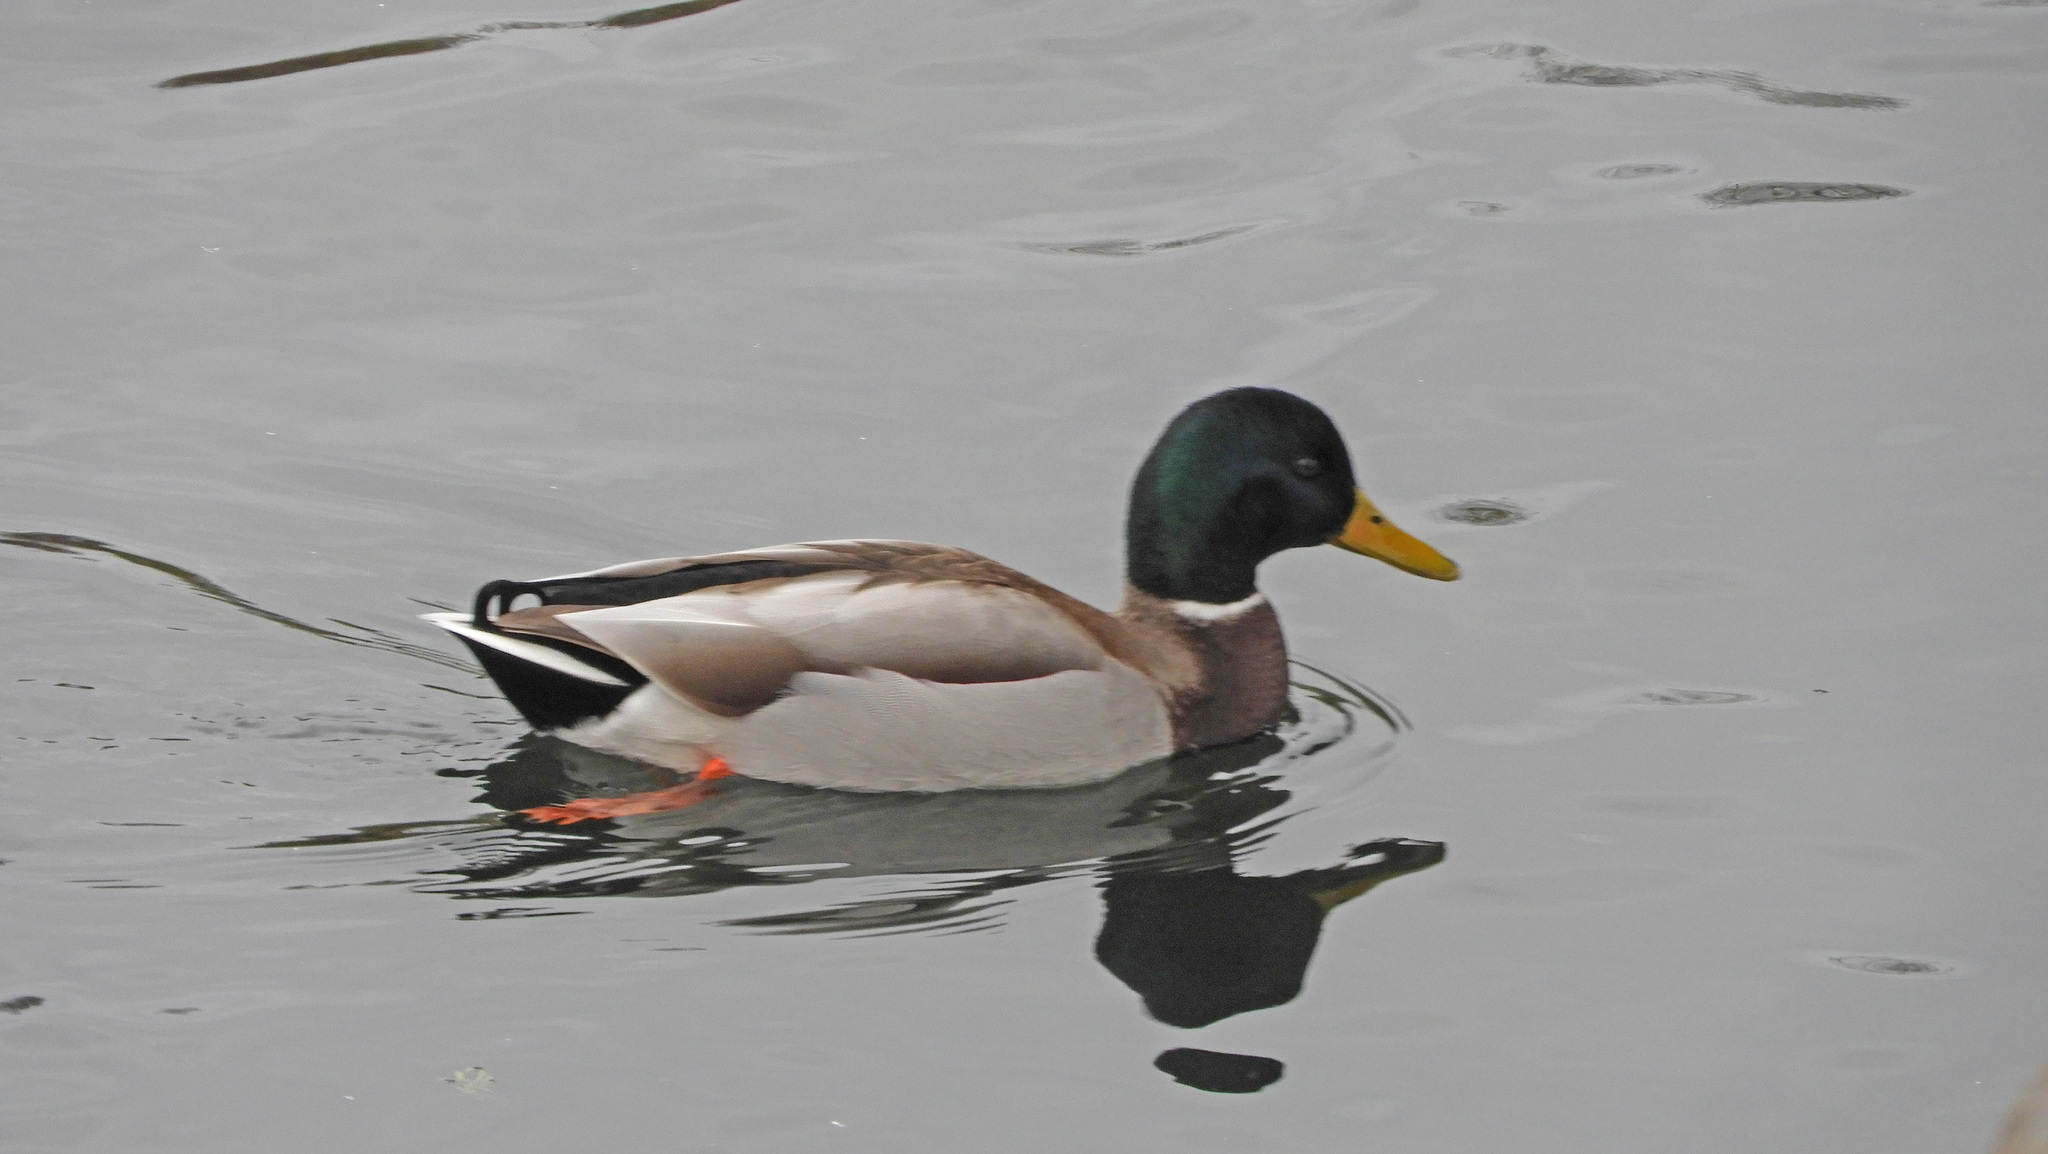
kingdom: Animalia
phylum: Chordata
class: Aves
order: Anseriformes
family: Anatidae
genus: Anas
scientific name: Anas platyrhynchos
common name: Mallard
